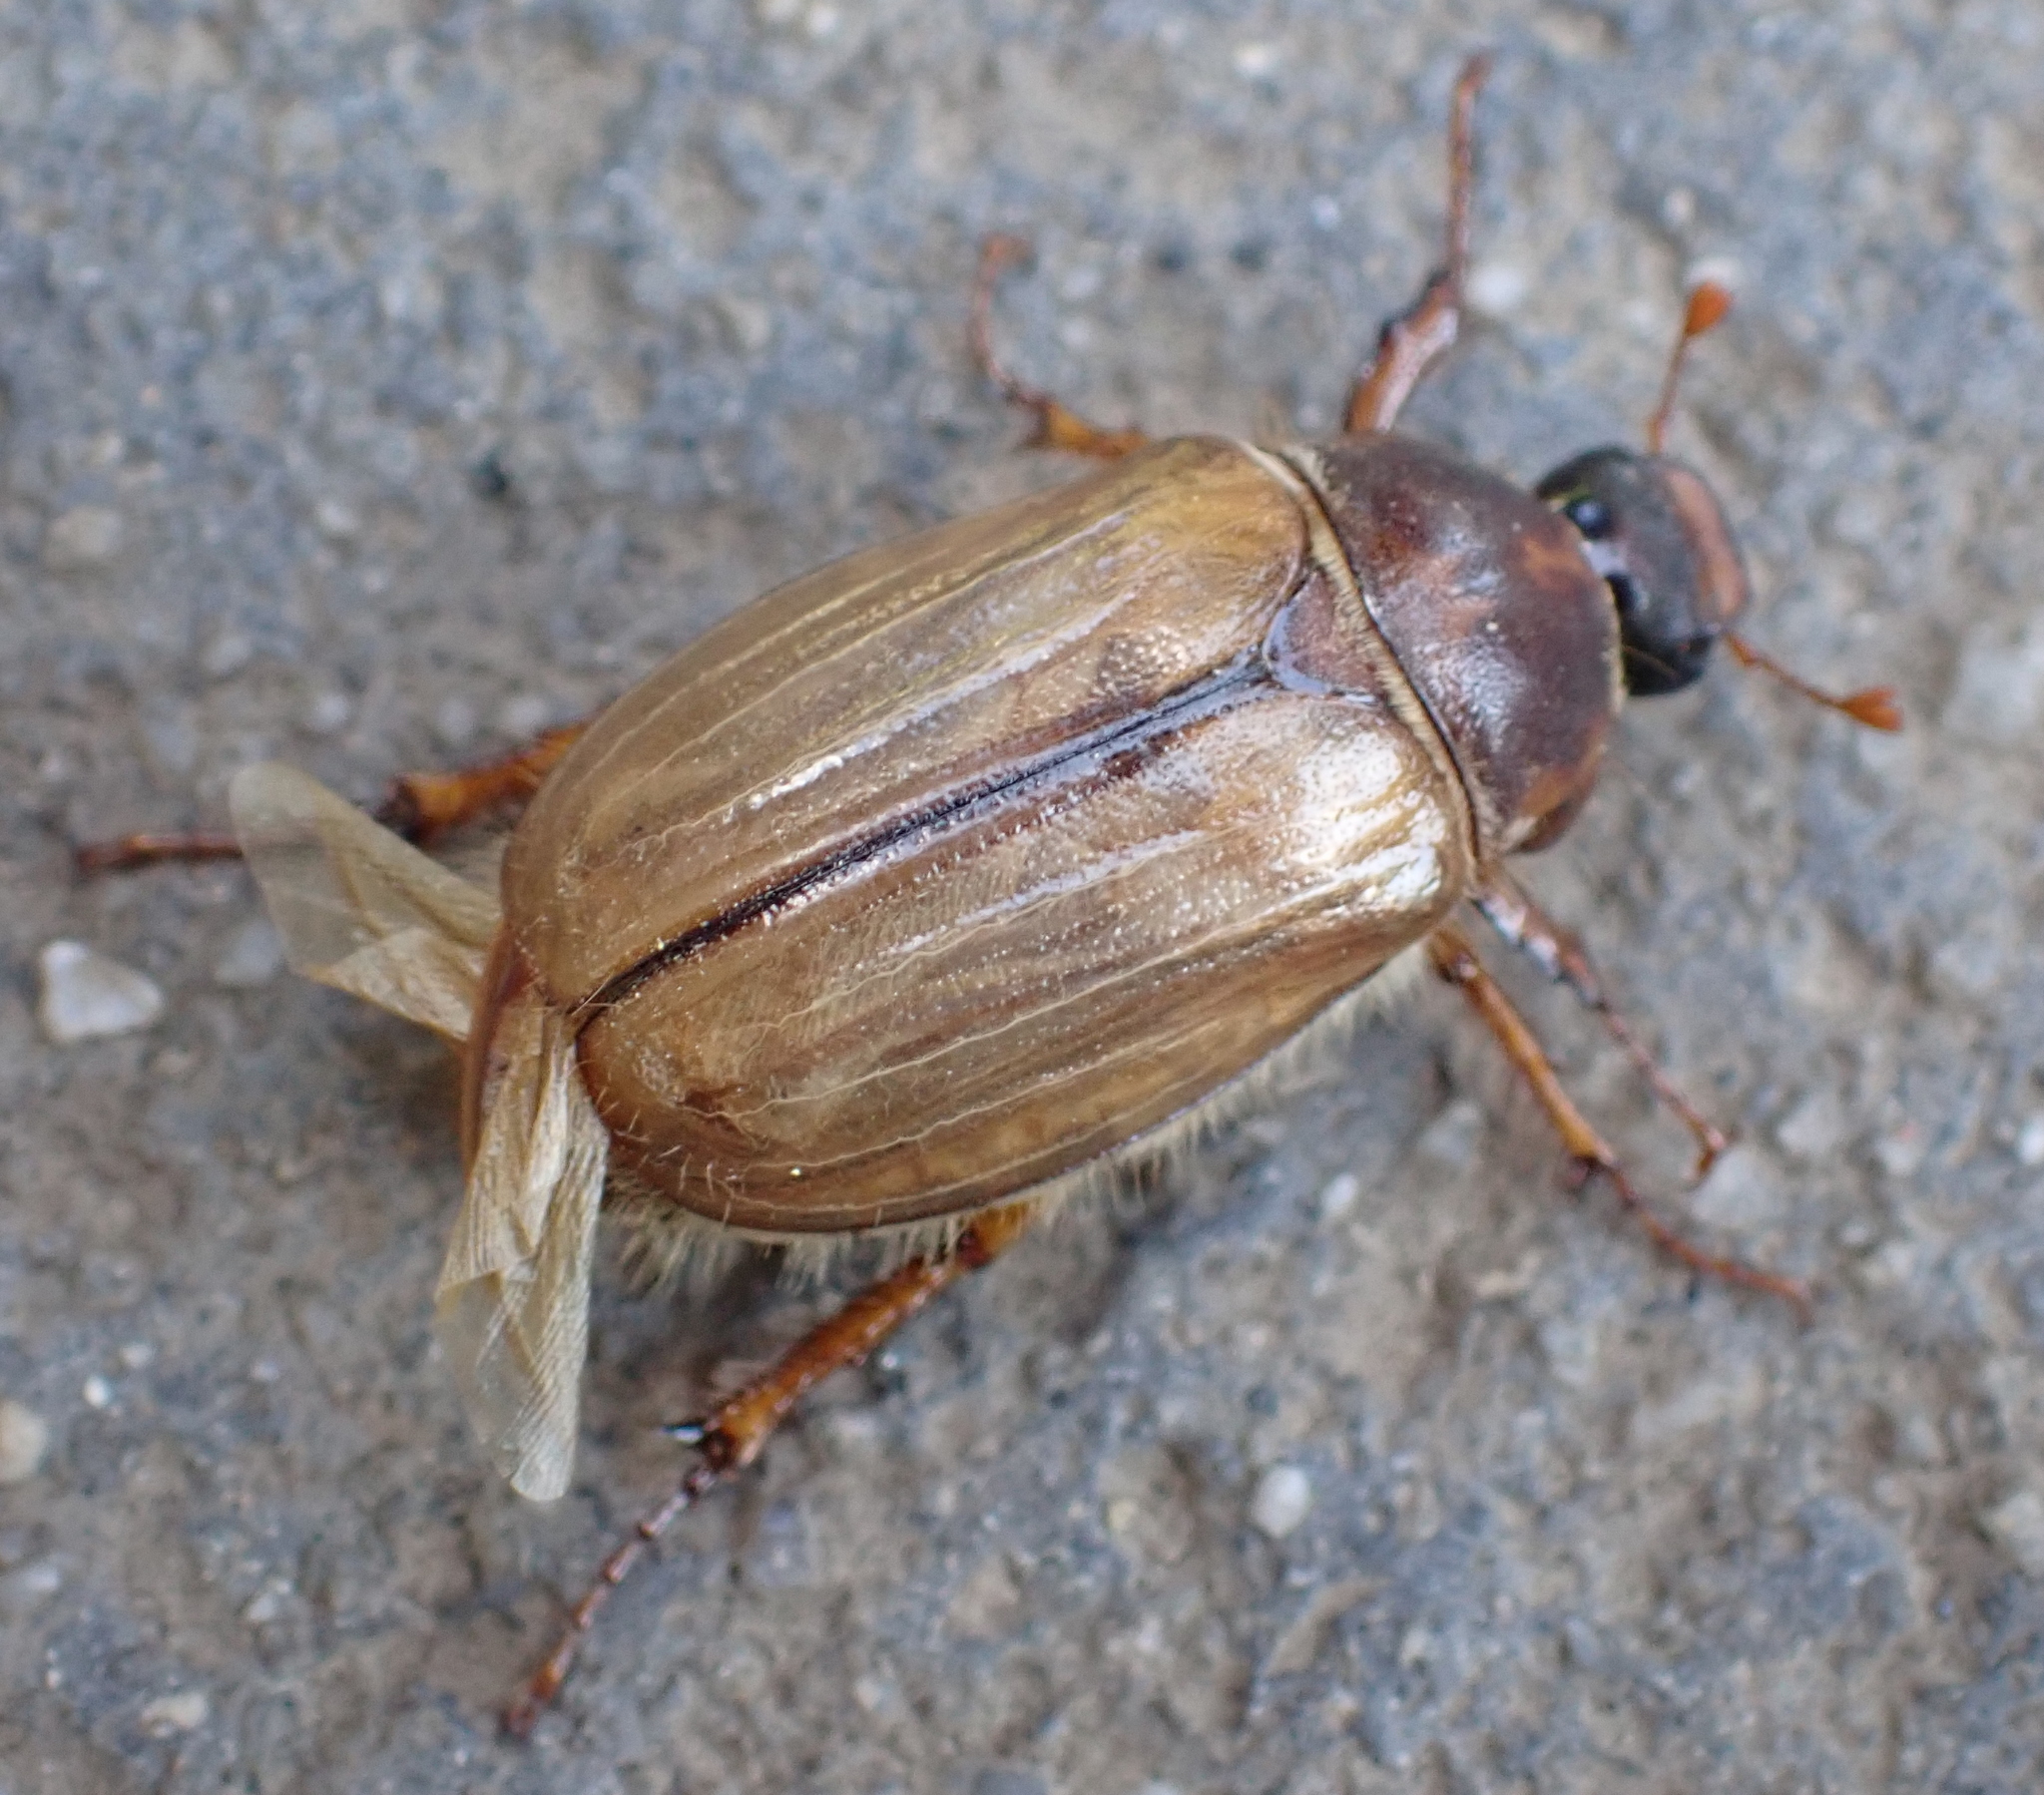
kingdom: Animalia
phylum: Arthropoda
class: Insecta
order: Coleoptera
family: Scarabaeidae
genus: Amphimallon
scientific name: Amphimallon solstitiale
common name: Summer chafer
